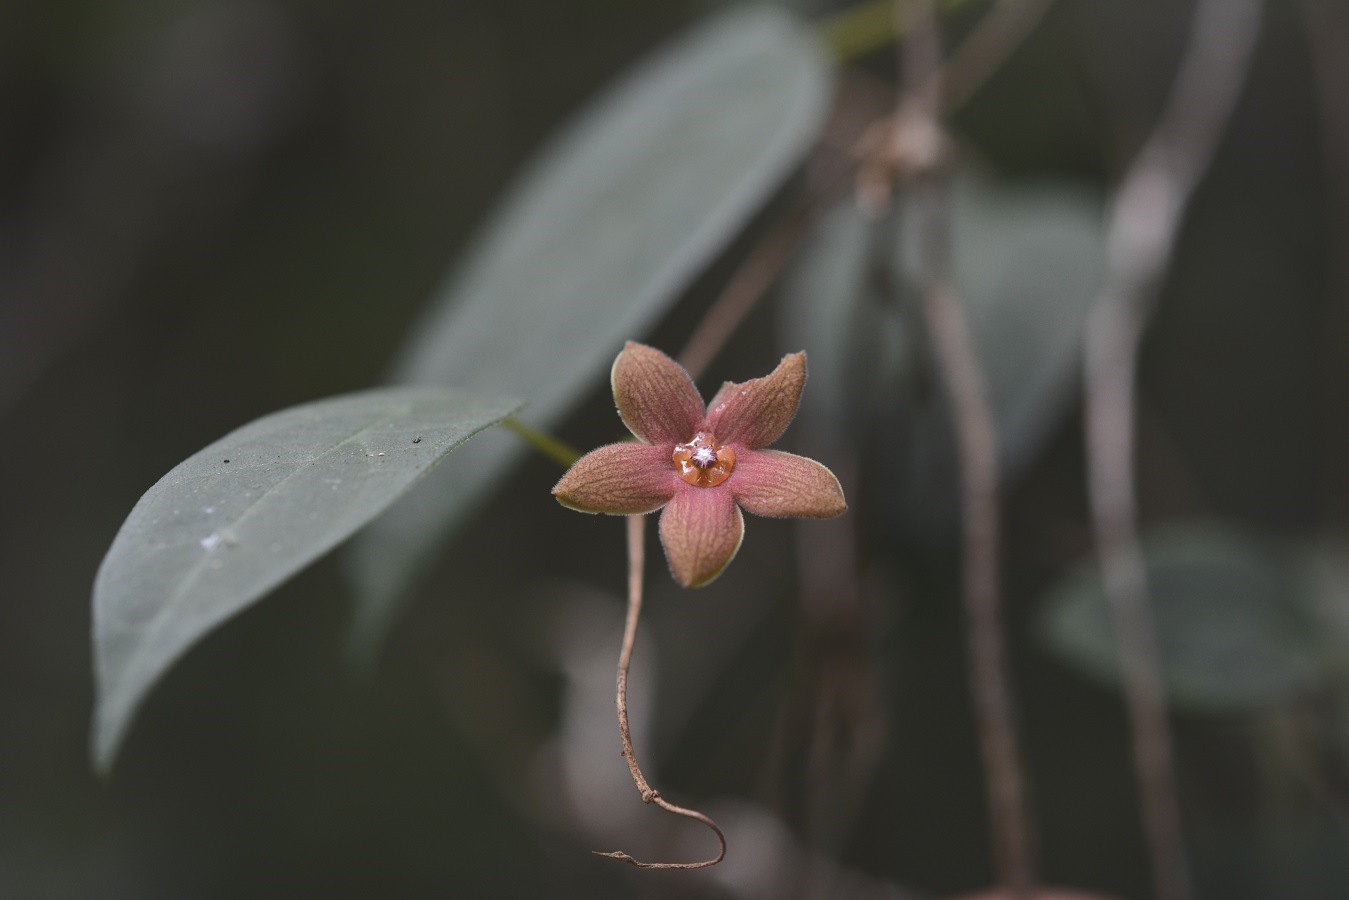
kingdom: Plantae
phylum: Tracheophyta
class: Magnoliopsida
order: Gentianales
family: Apocynaceae
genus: Ruehssia
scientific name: Ruehssia sumiderensis
